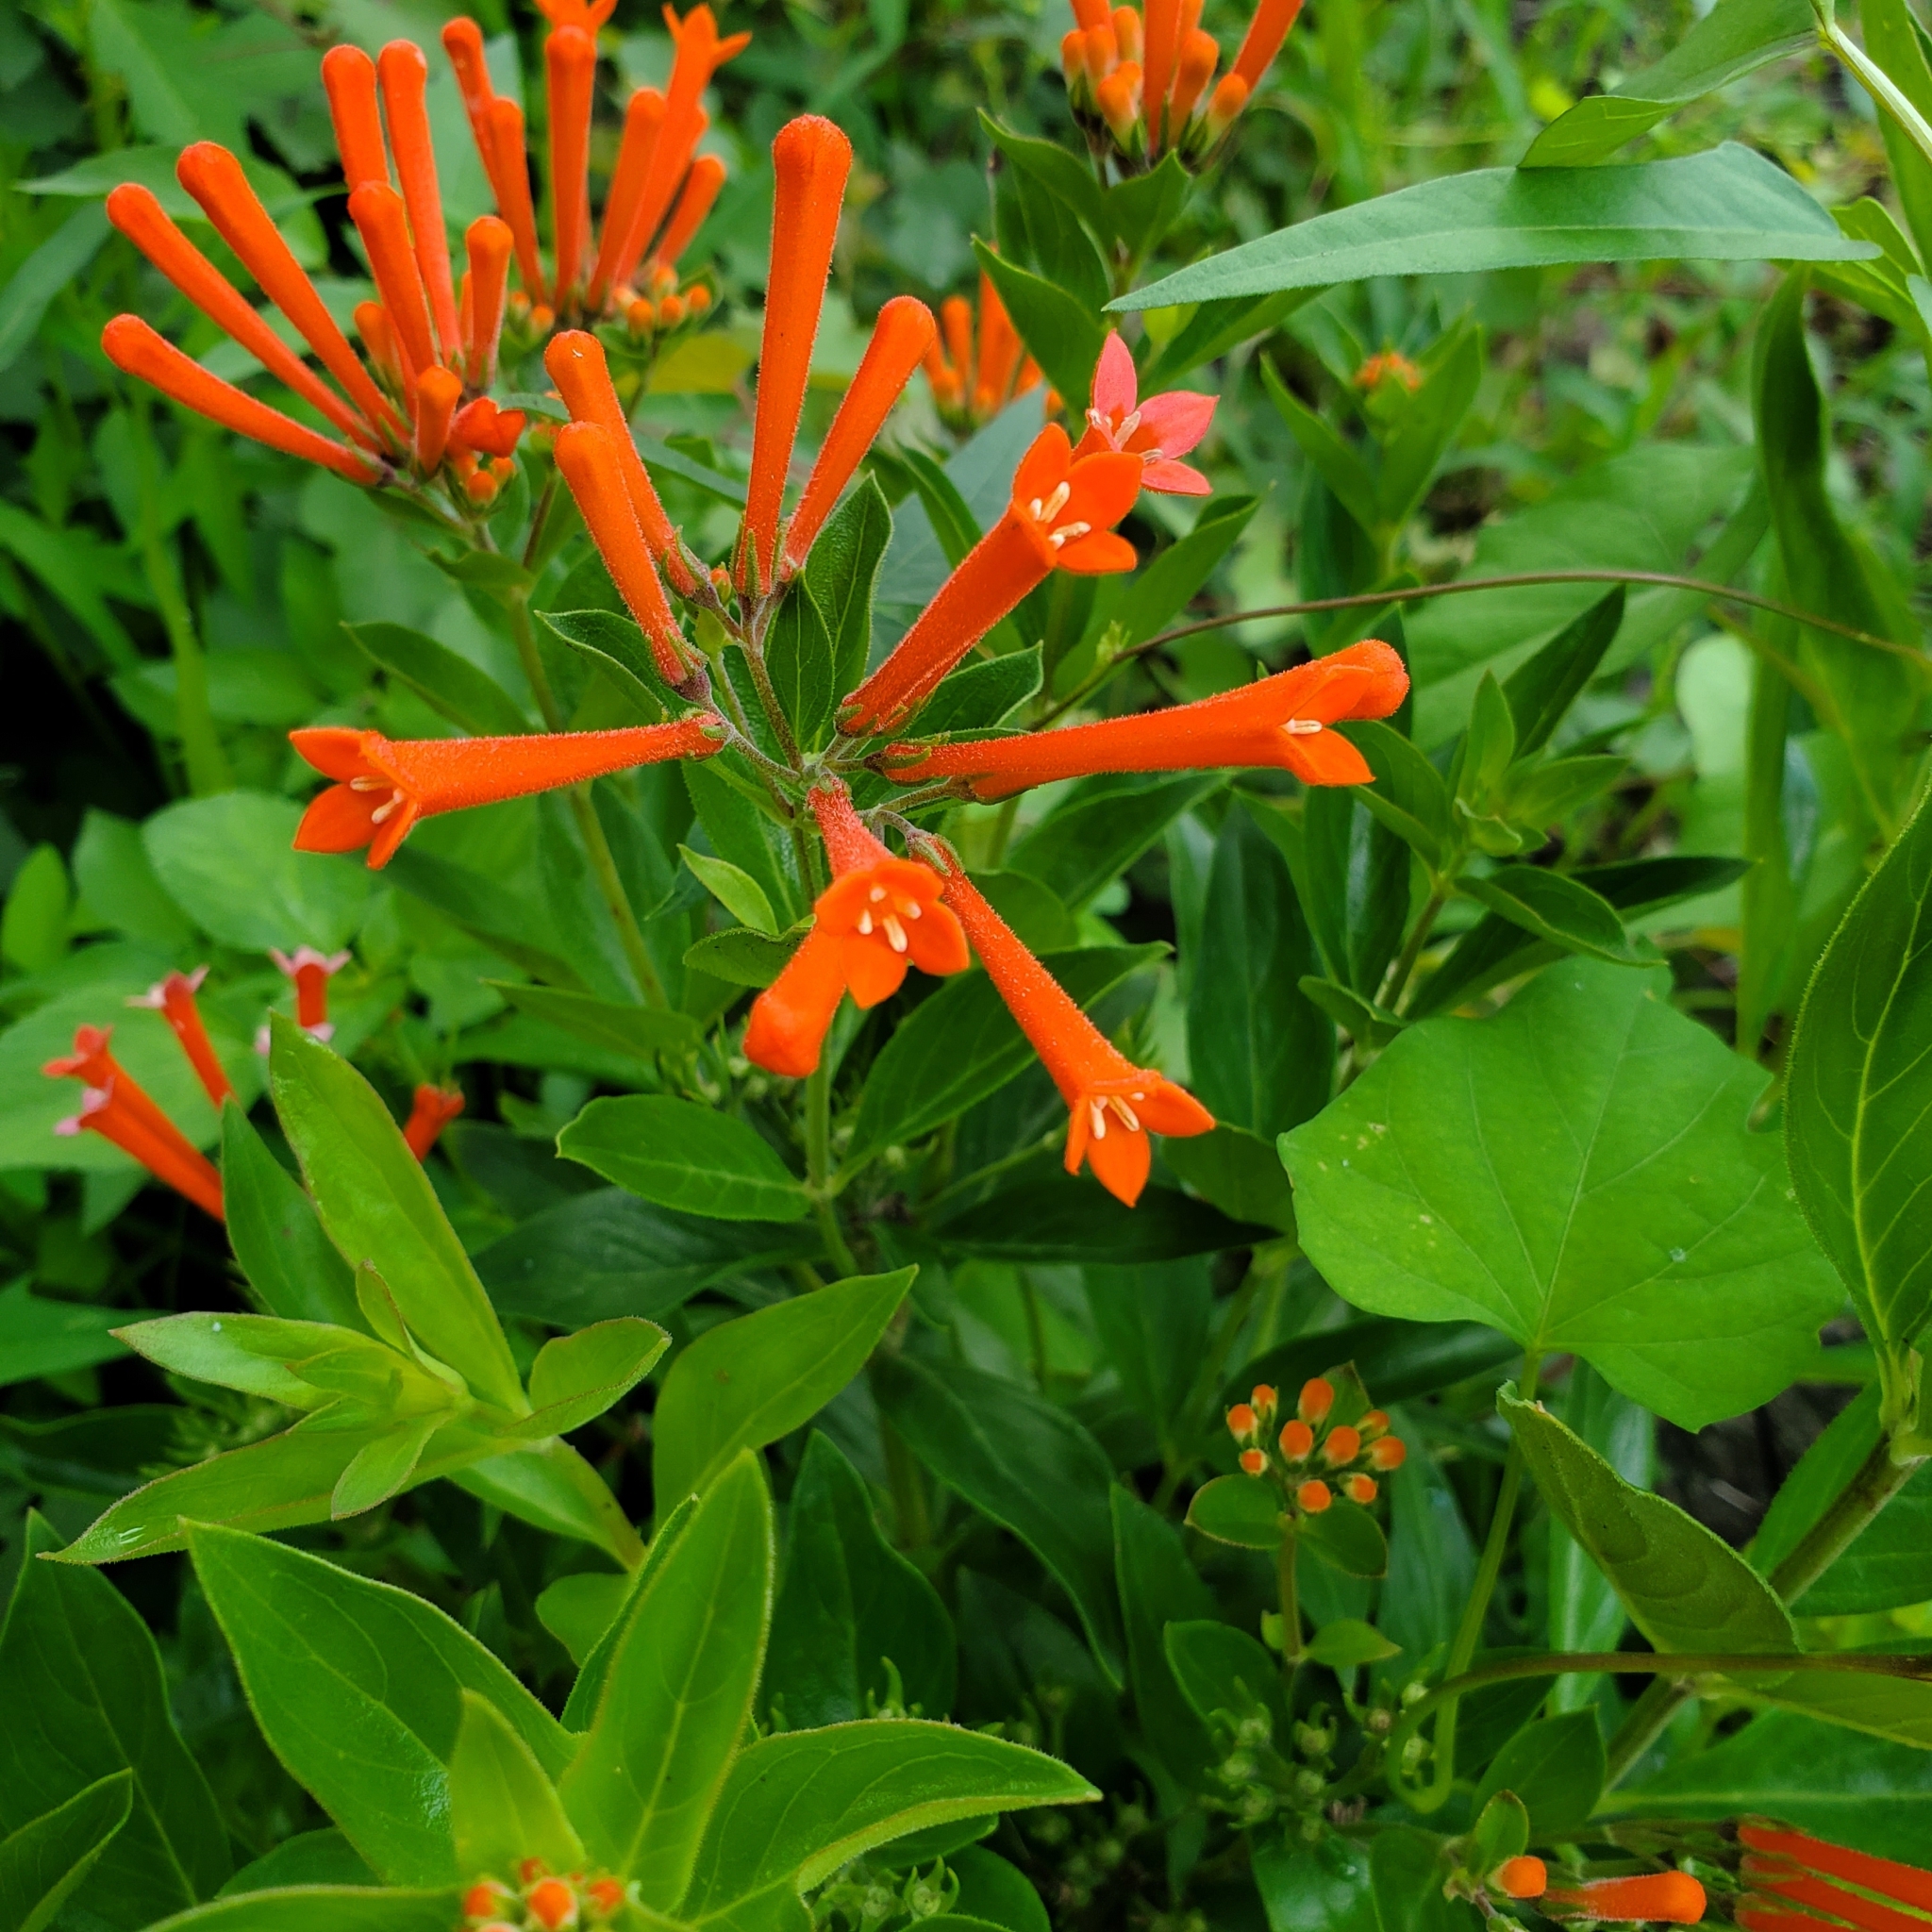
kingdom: Plantae
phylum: Tracheophyta
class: Magnoliopsida
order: Gentianales
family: Rubiaceae
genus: Bouvardia
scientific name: Bouvardia ternifolia
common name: Scarlet bouvardia
